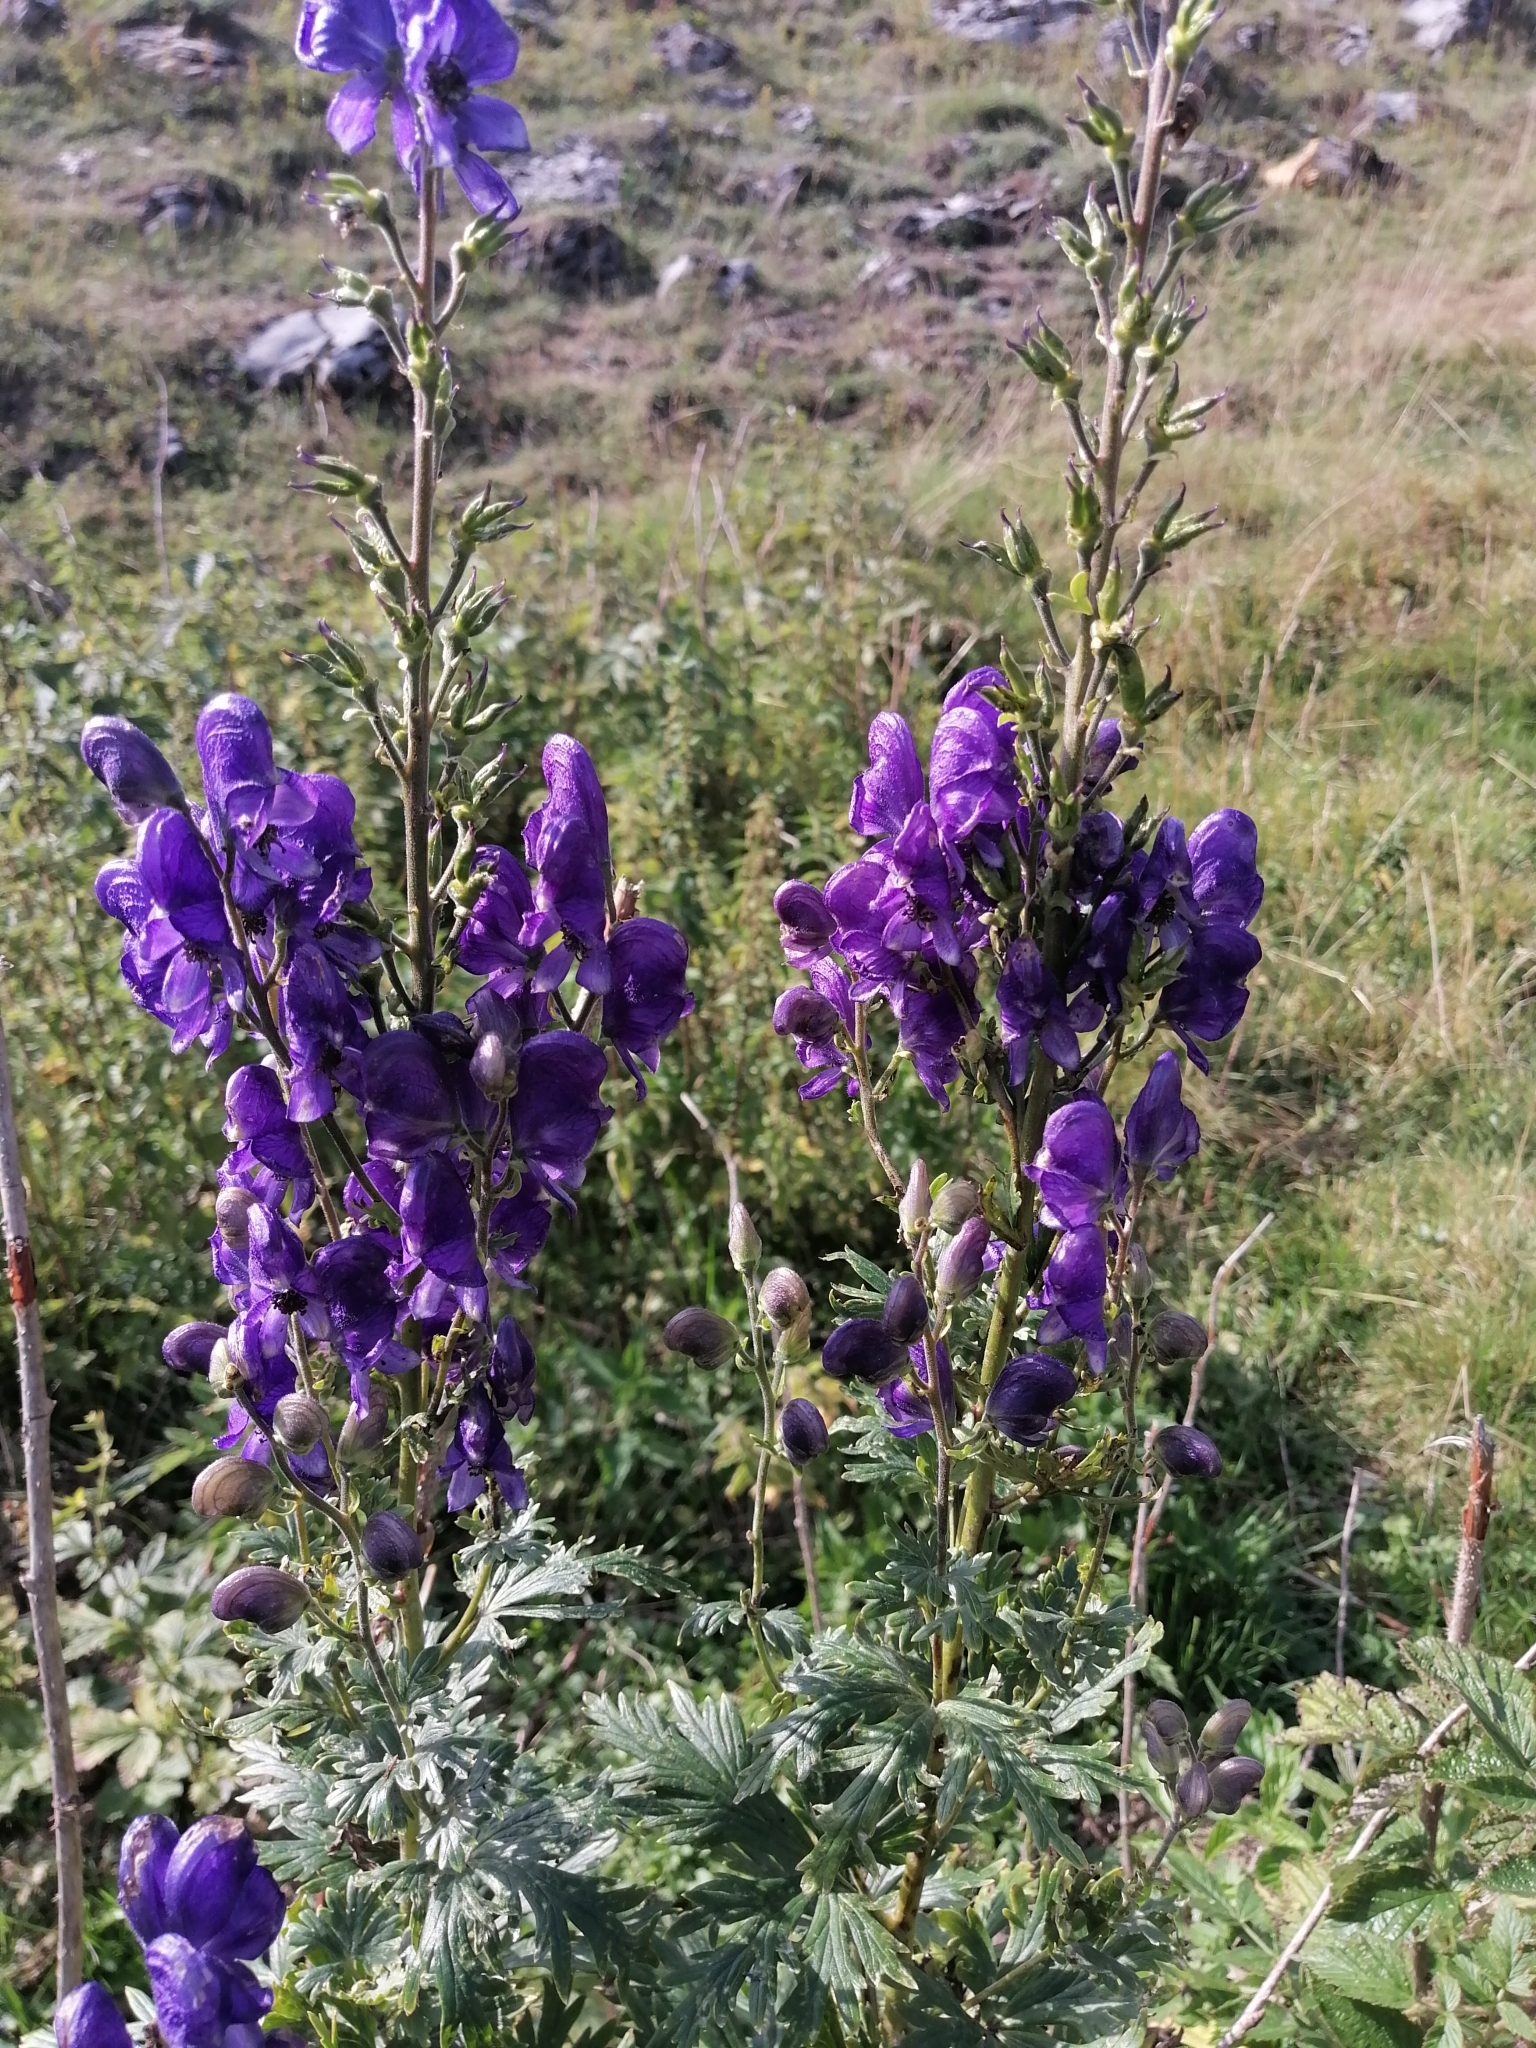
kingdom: Plantae
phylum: Tracheophyta
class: Magnoliopsida
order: Ranunculales
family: Ranunculaceae
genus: Aconitum
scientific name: Aconitum napellus
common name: Garden monkshood
